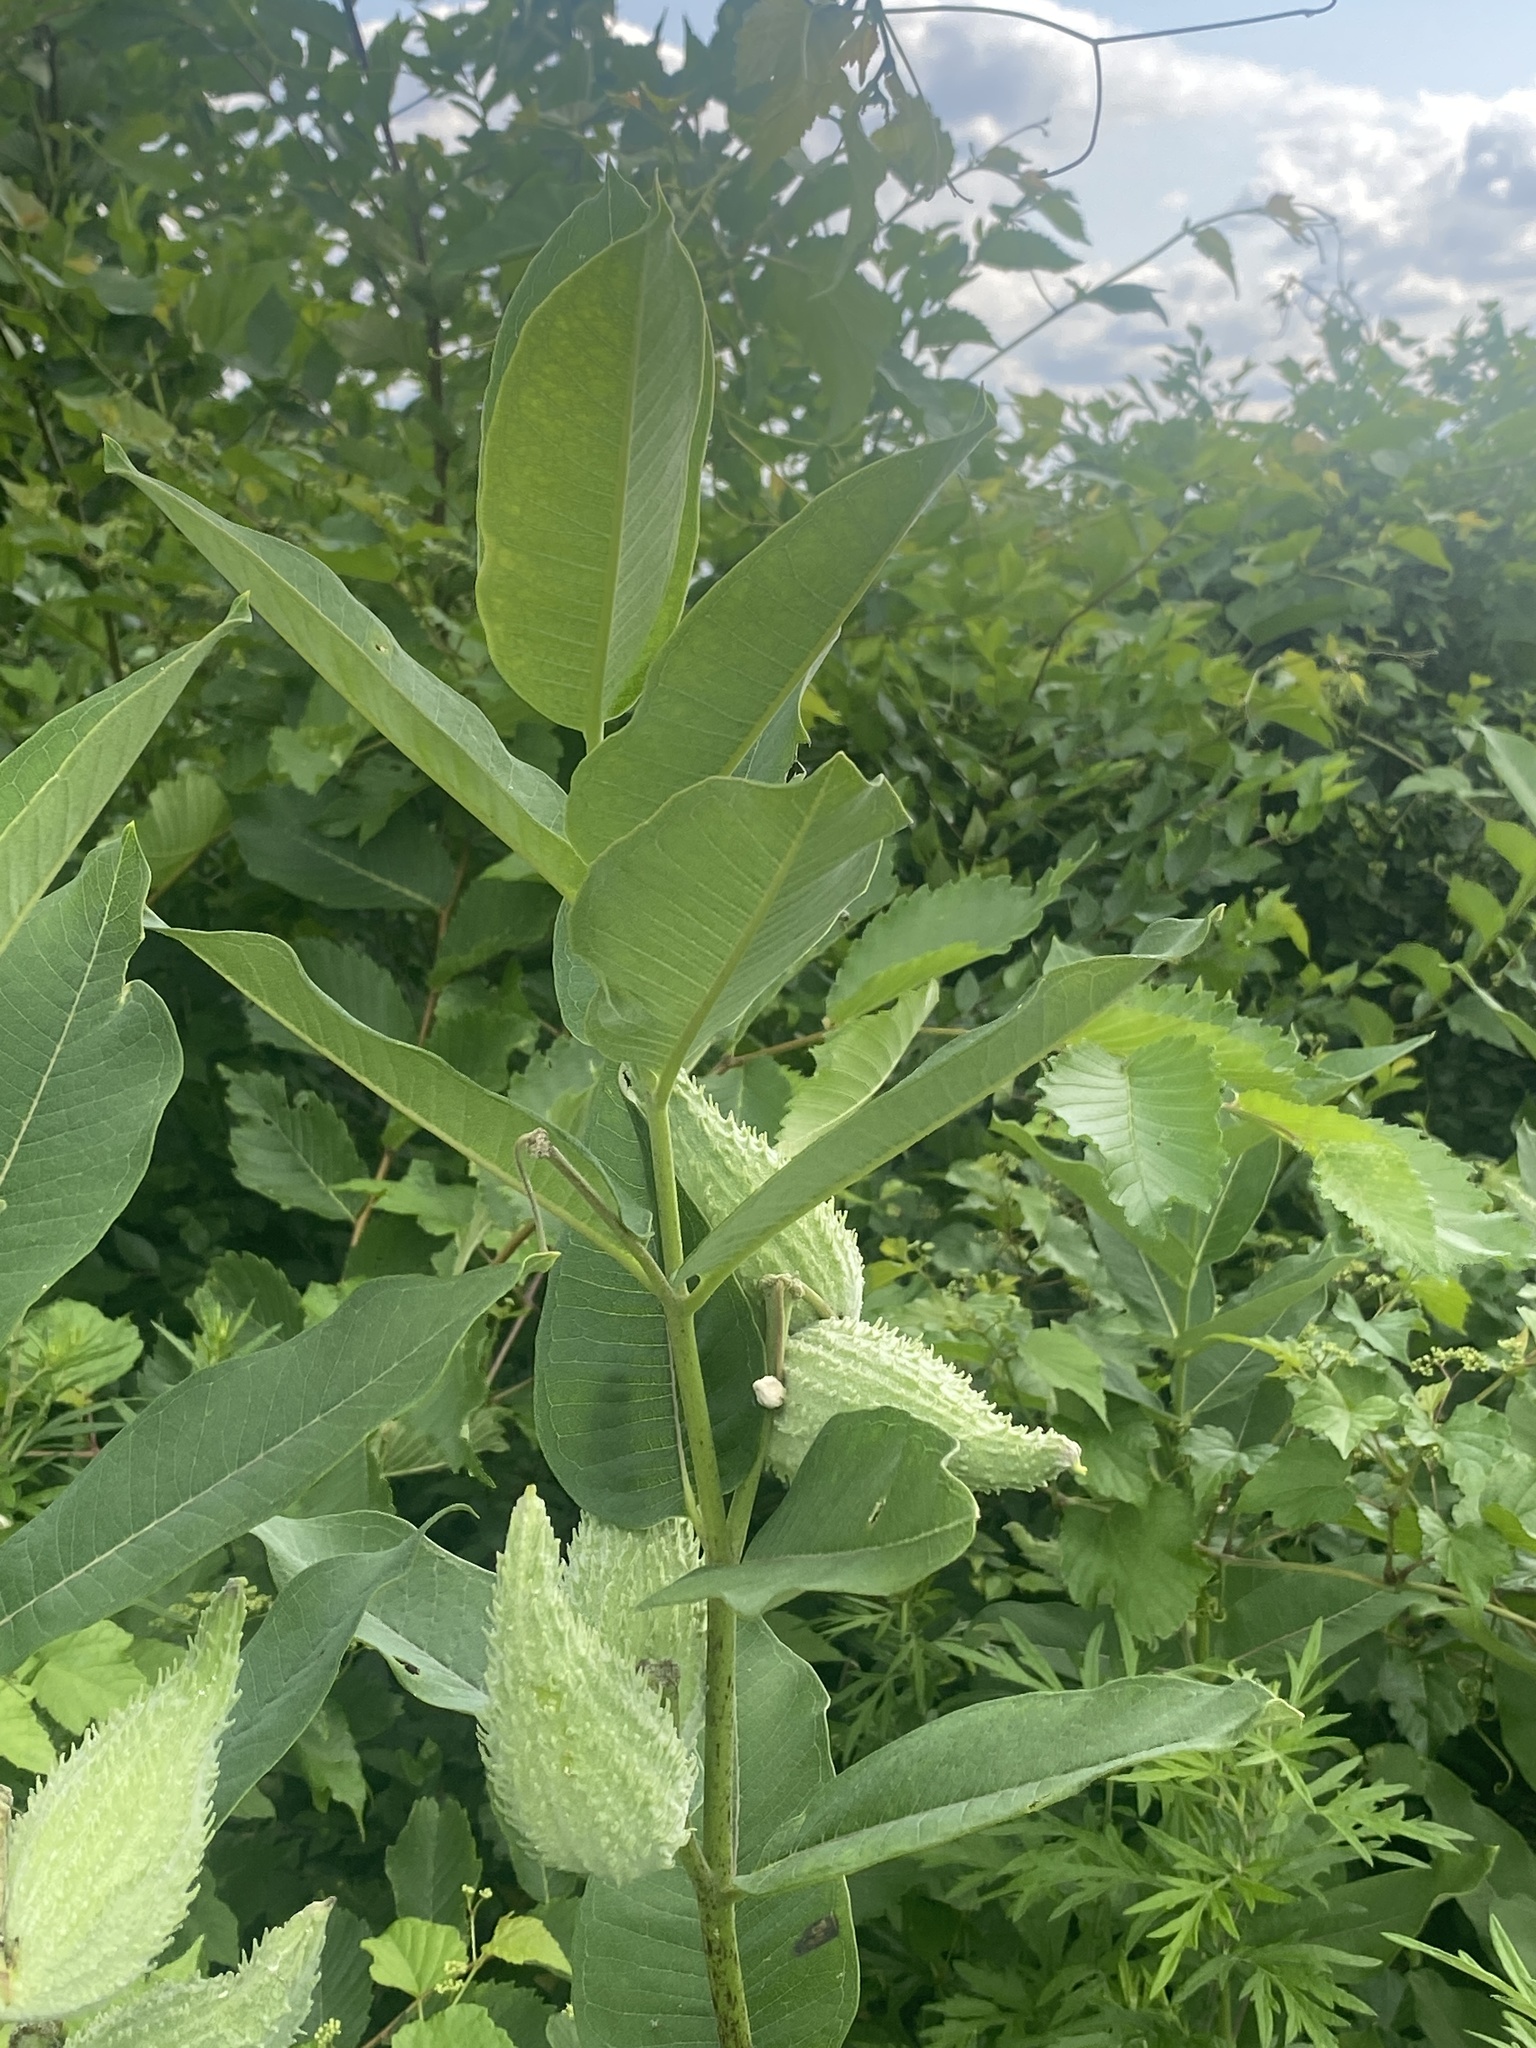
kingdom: Plantae
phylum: Tracheophyta
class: Magnoliopsida
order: Gentianales
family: Apocynaceae
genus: Asclepias
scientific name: Asclepias syriaca
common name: Common milkweed
